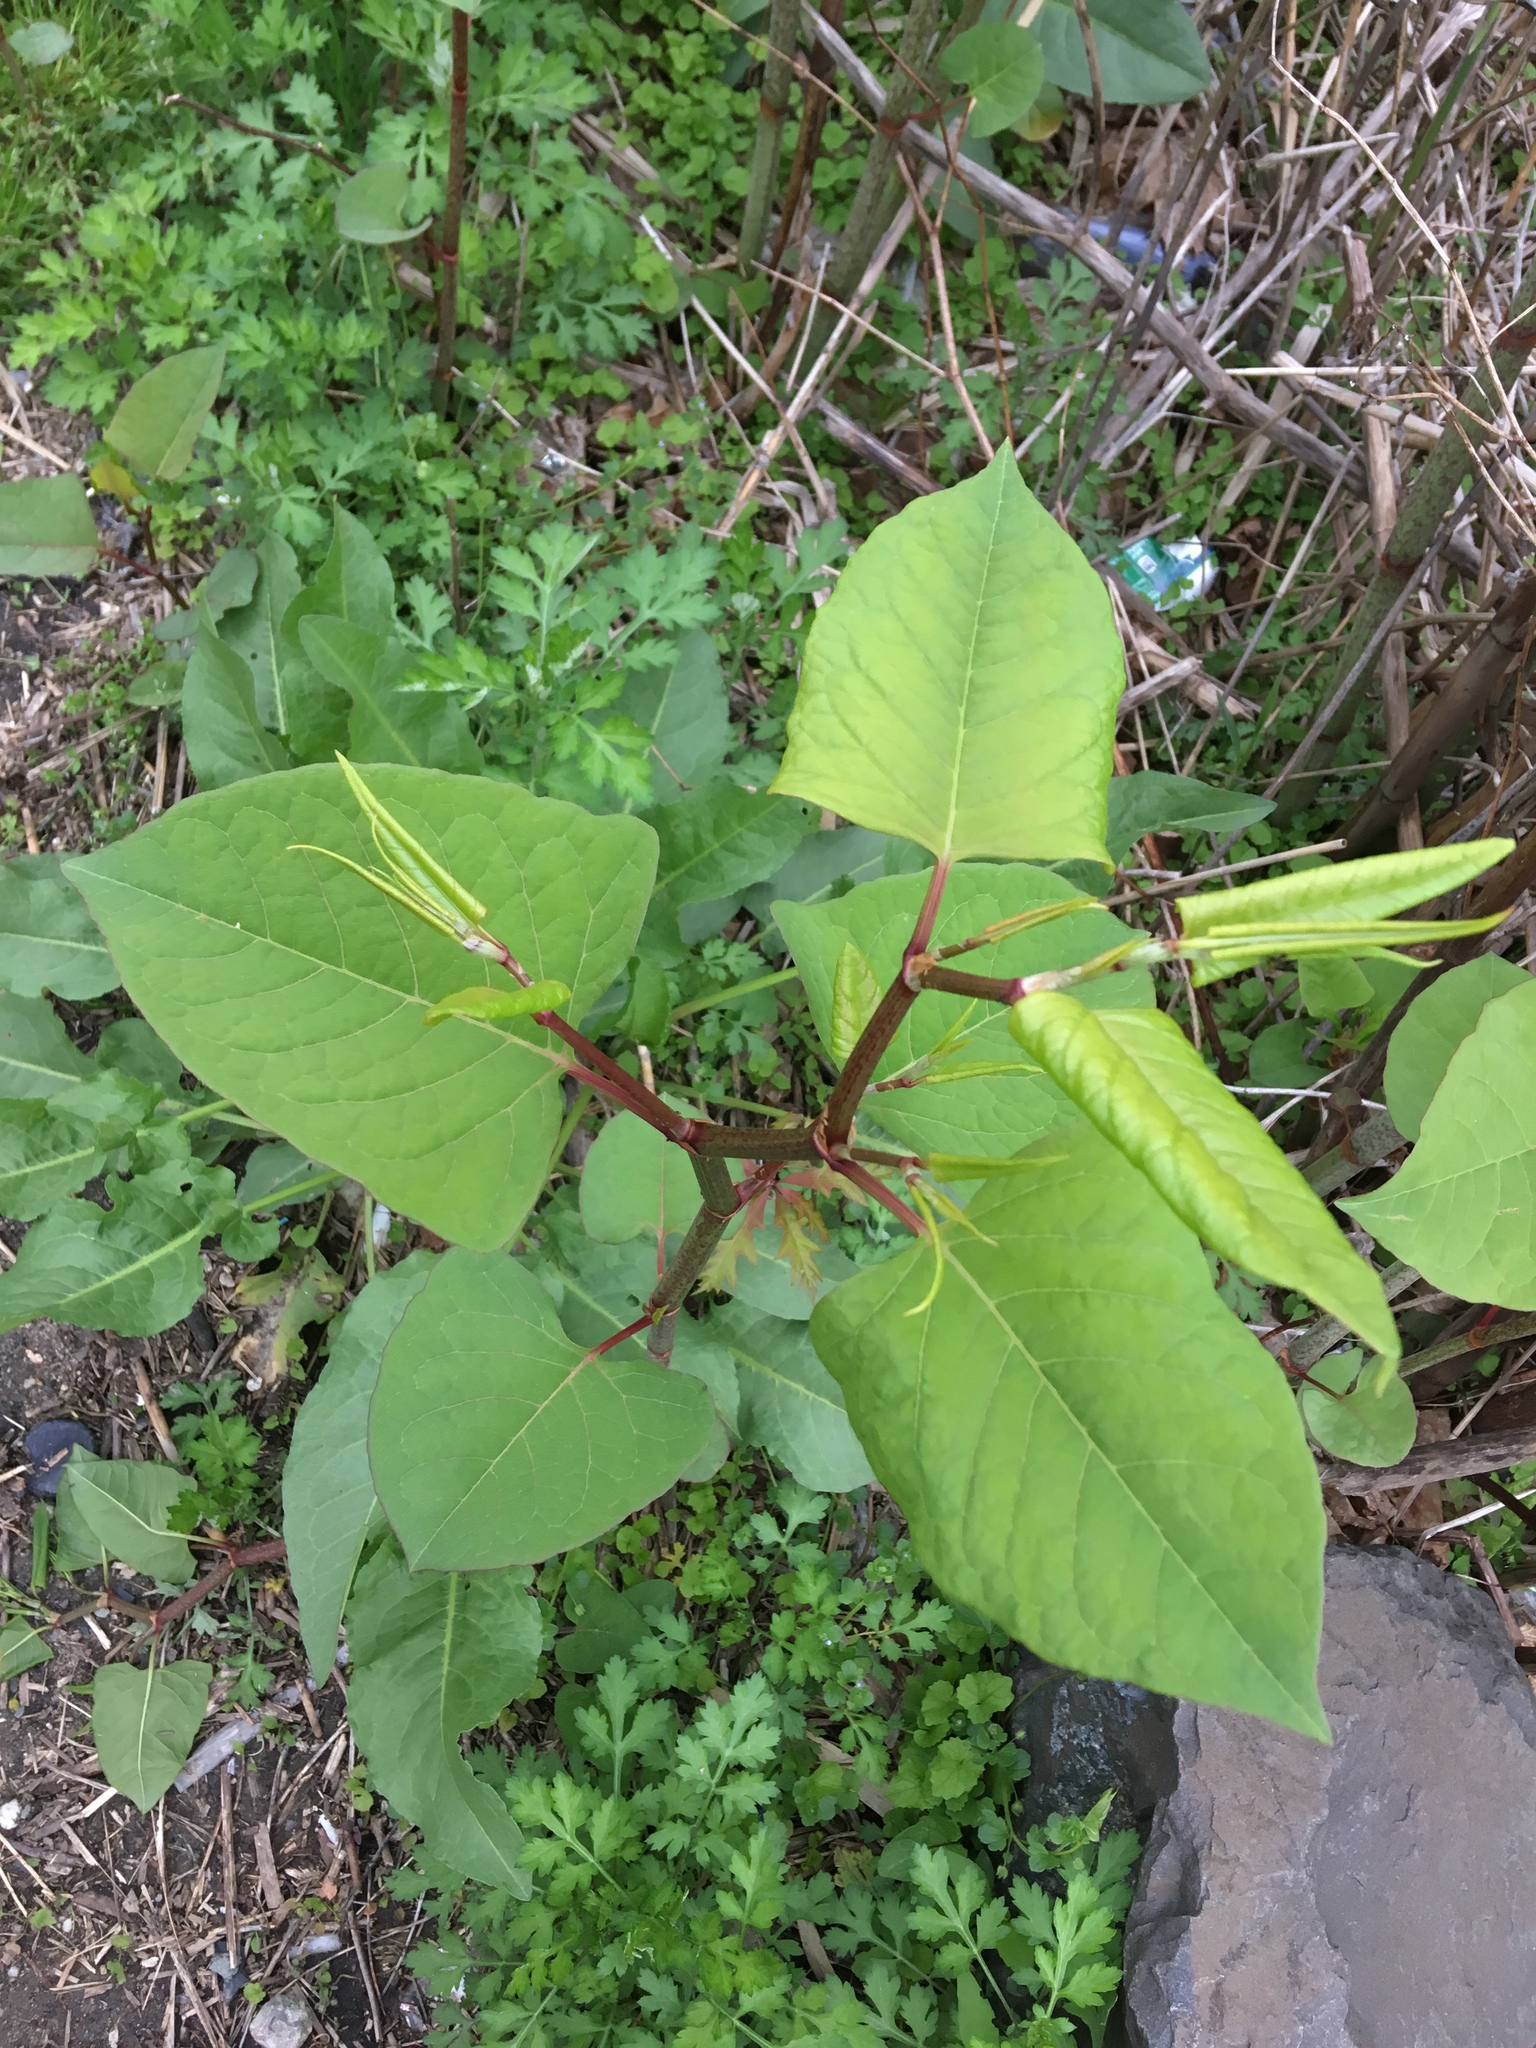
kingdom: Plantae
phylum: Tracheophyta
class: Magnoliopsida
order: Caryophyllales
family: Polygonaceae
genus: Reynoutria
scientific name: Reynoutria japonica
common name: Japanese knotweed
